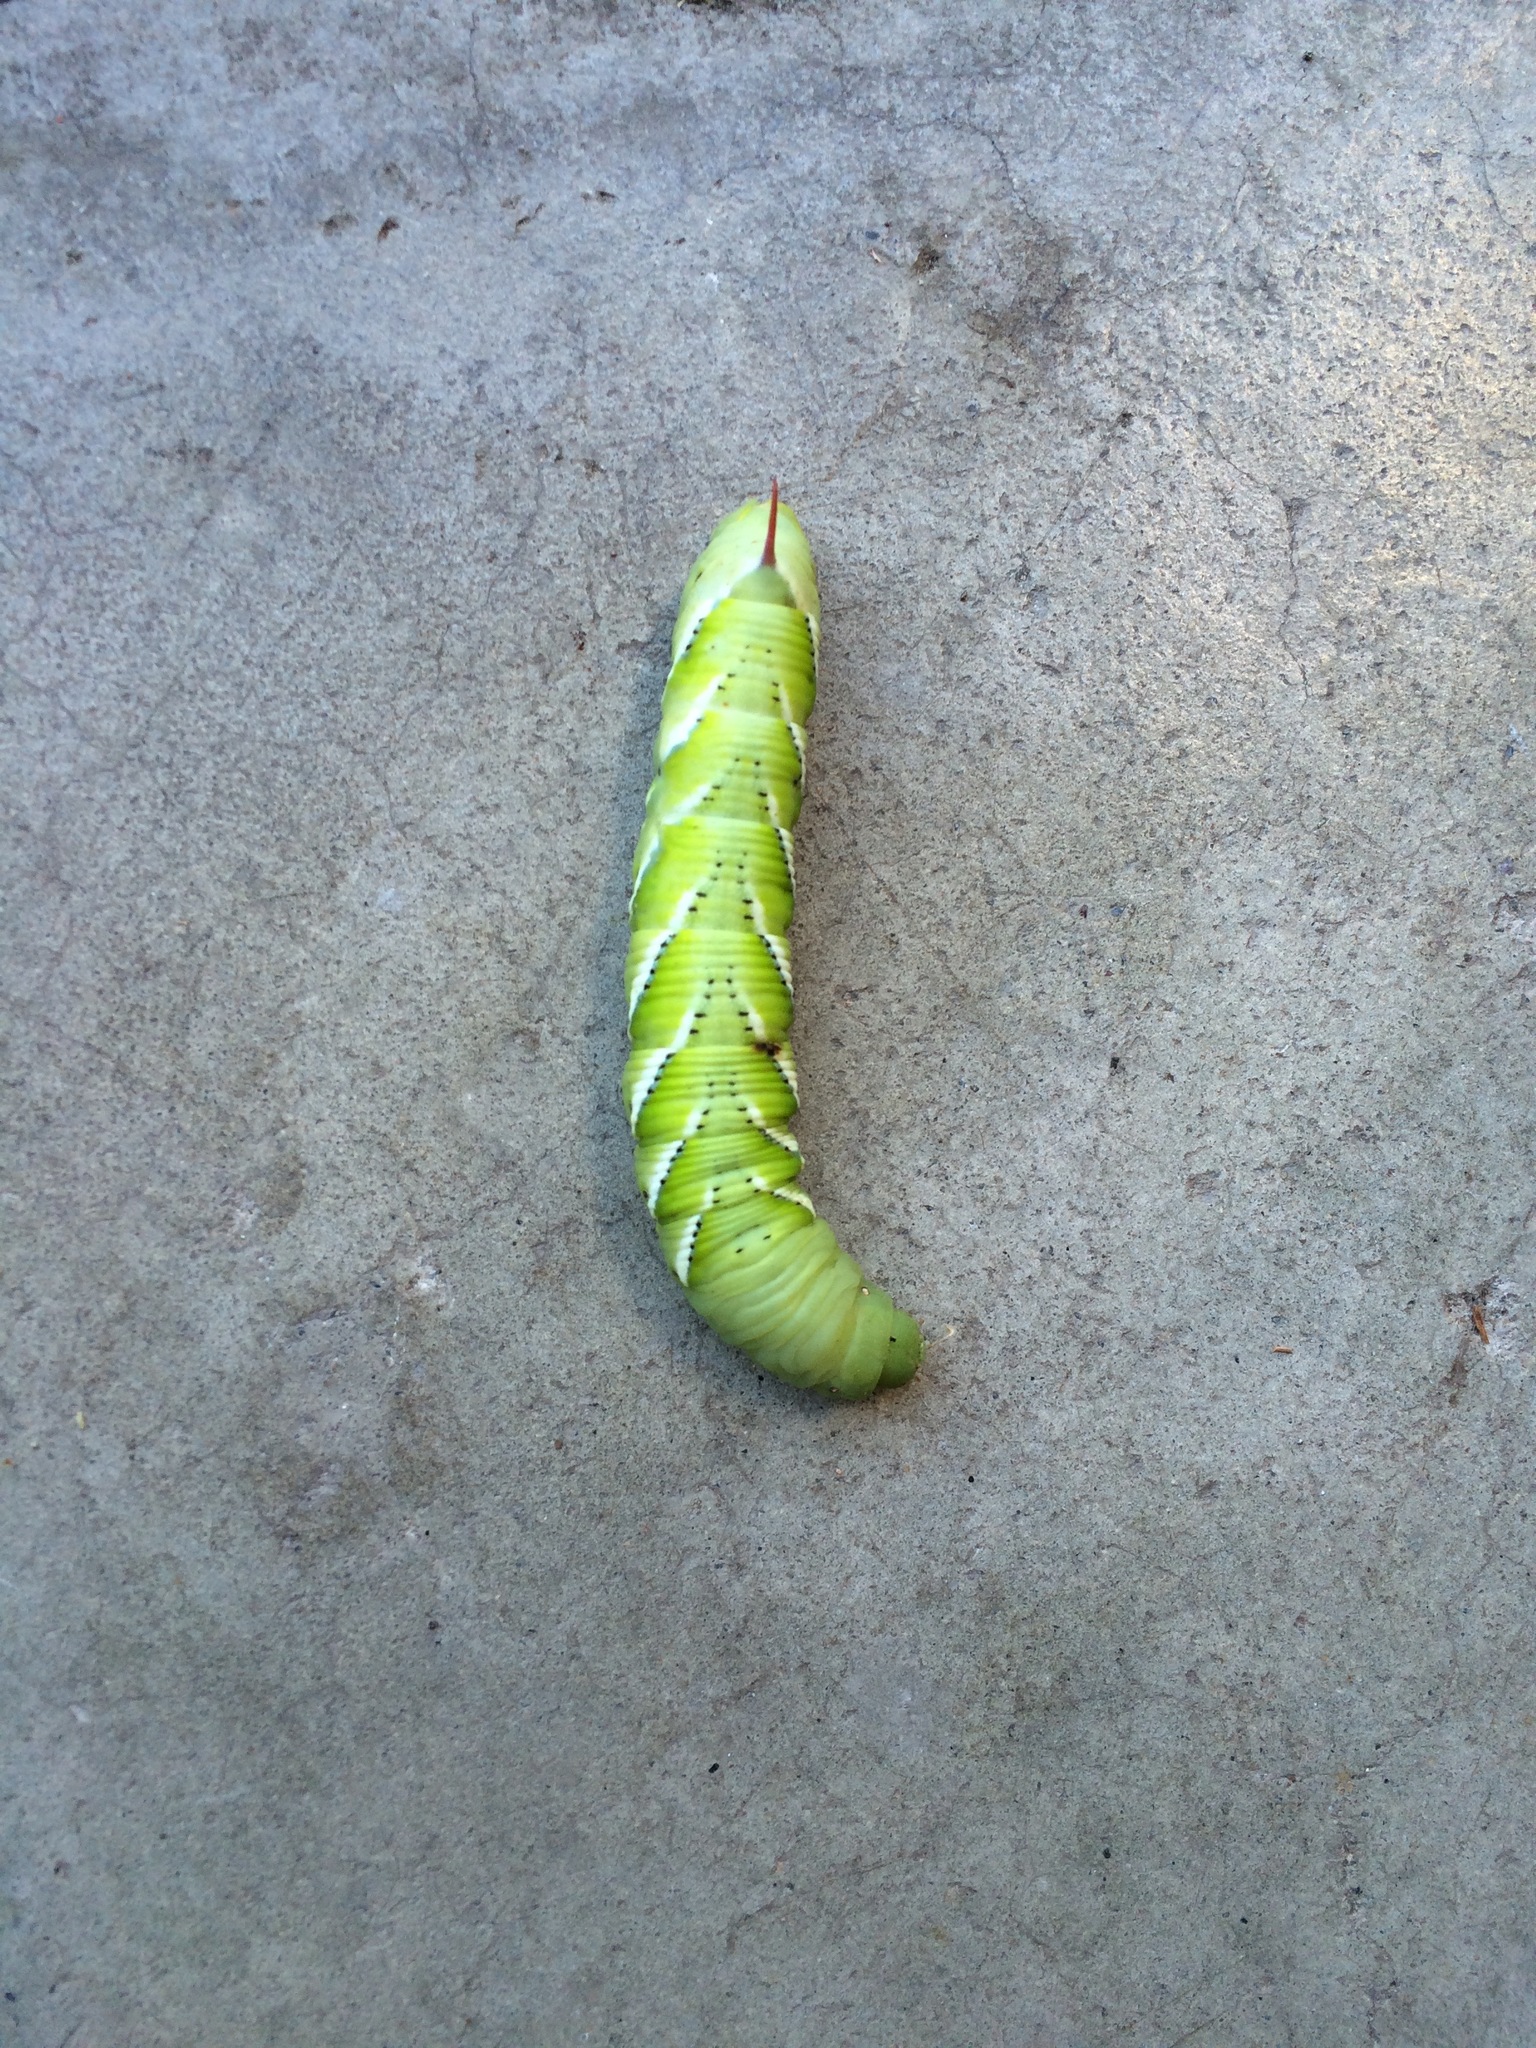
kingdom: Animalia
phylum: Arthropoda
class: Insecta
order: Lepidoptera
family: Sphingidae
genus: Manduca
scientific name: Manduca sexta
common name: Carolina sphinx
